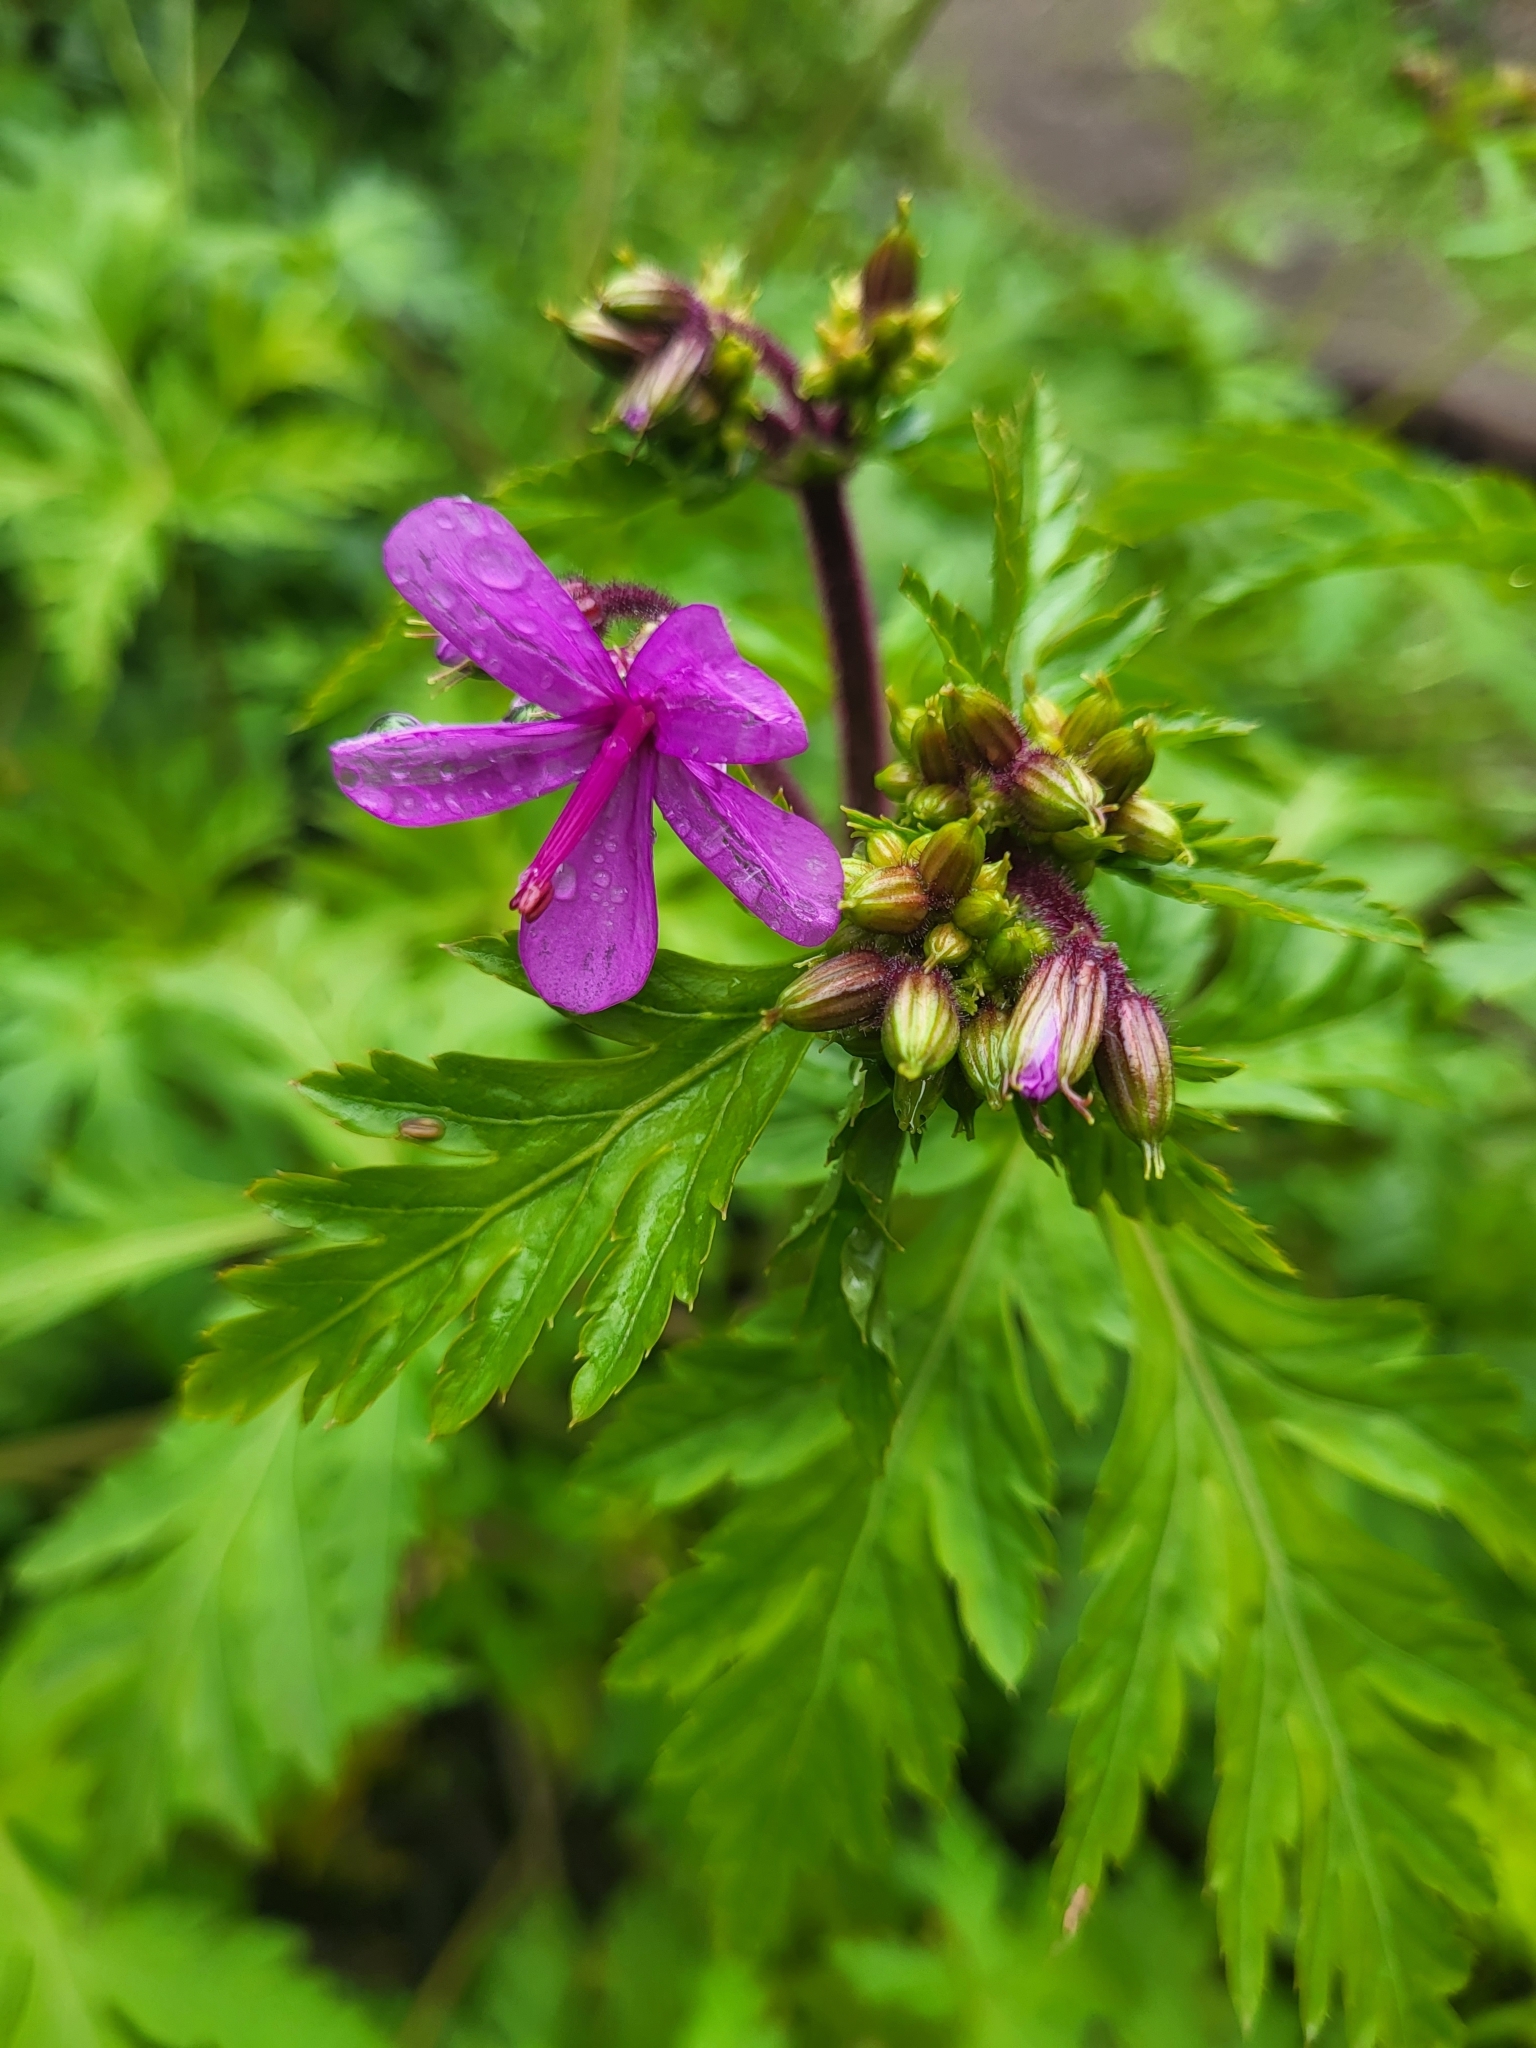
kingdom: Plantae
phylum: Tracheophyta
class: Magnoliopsida
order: Geraniales
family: Geraniaceae
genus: Geranium
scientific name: Geranium reuteri
